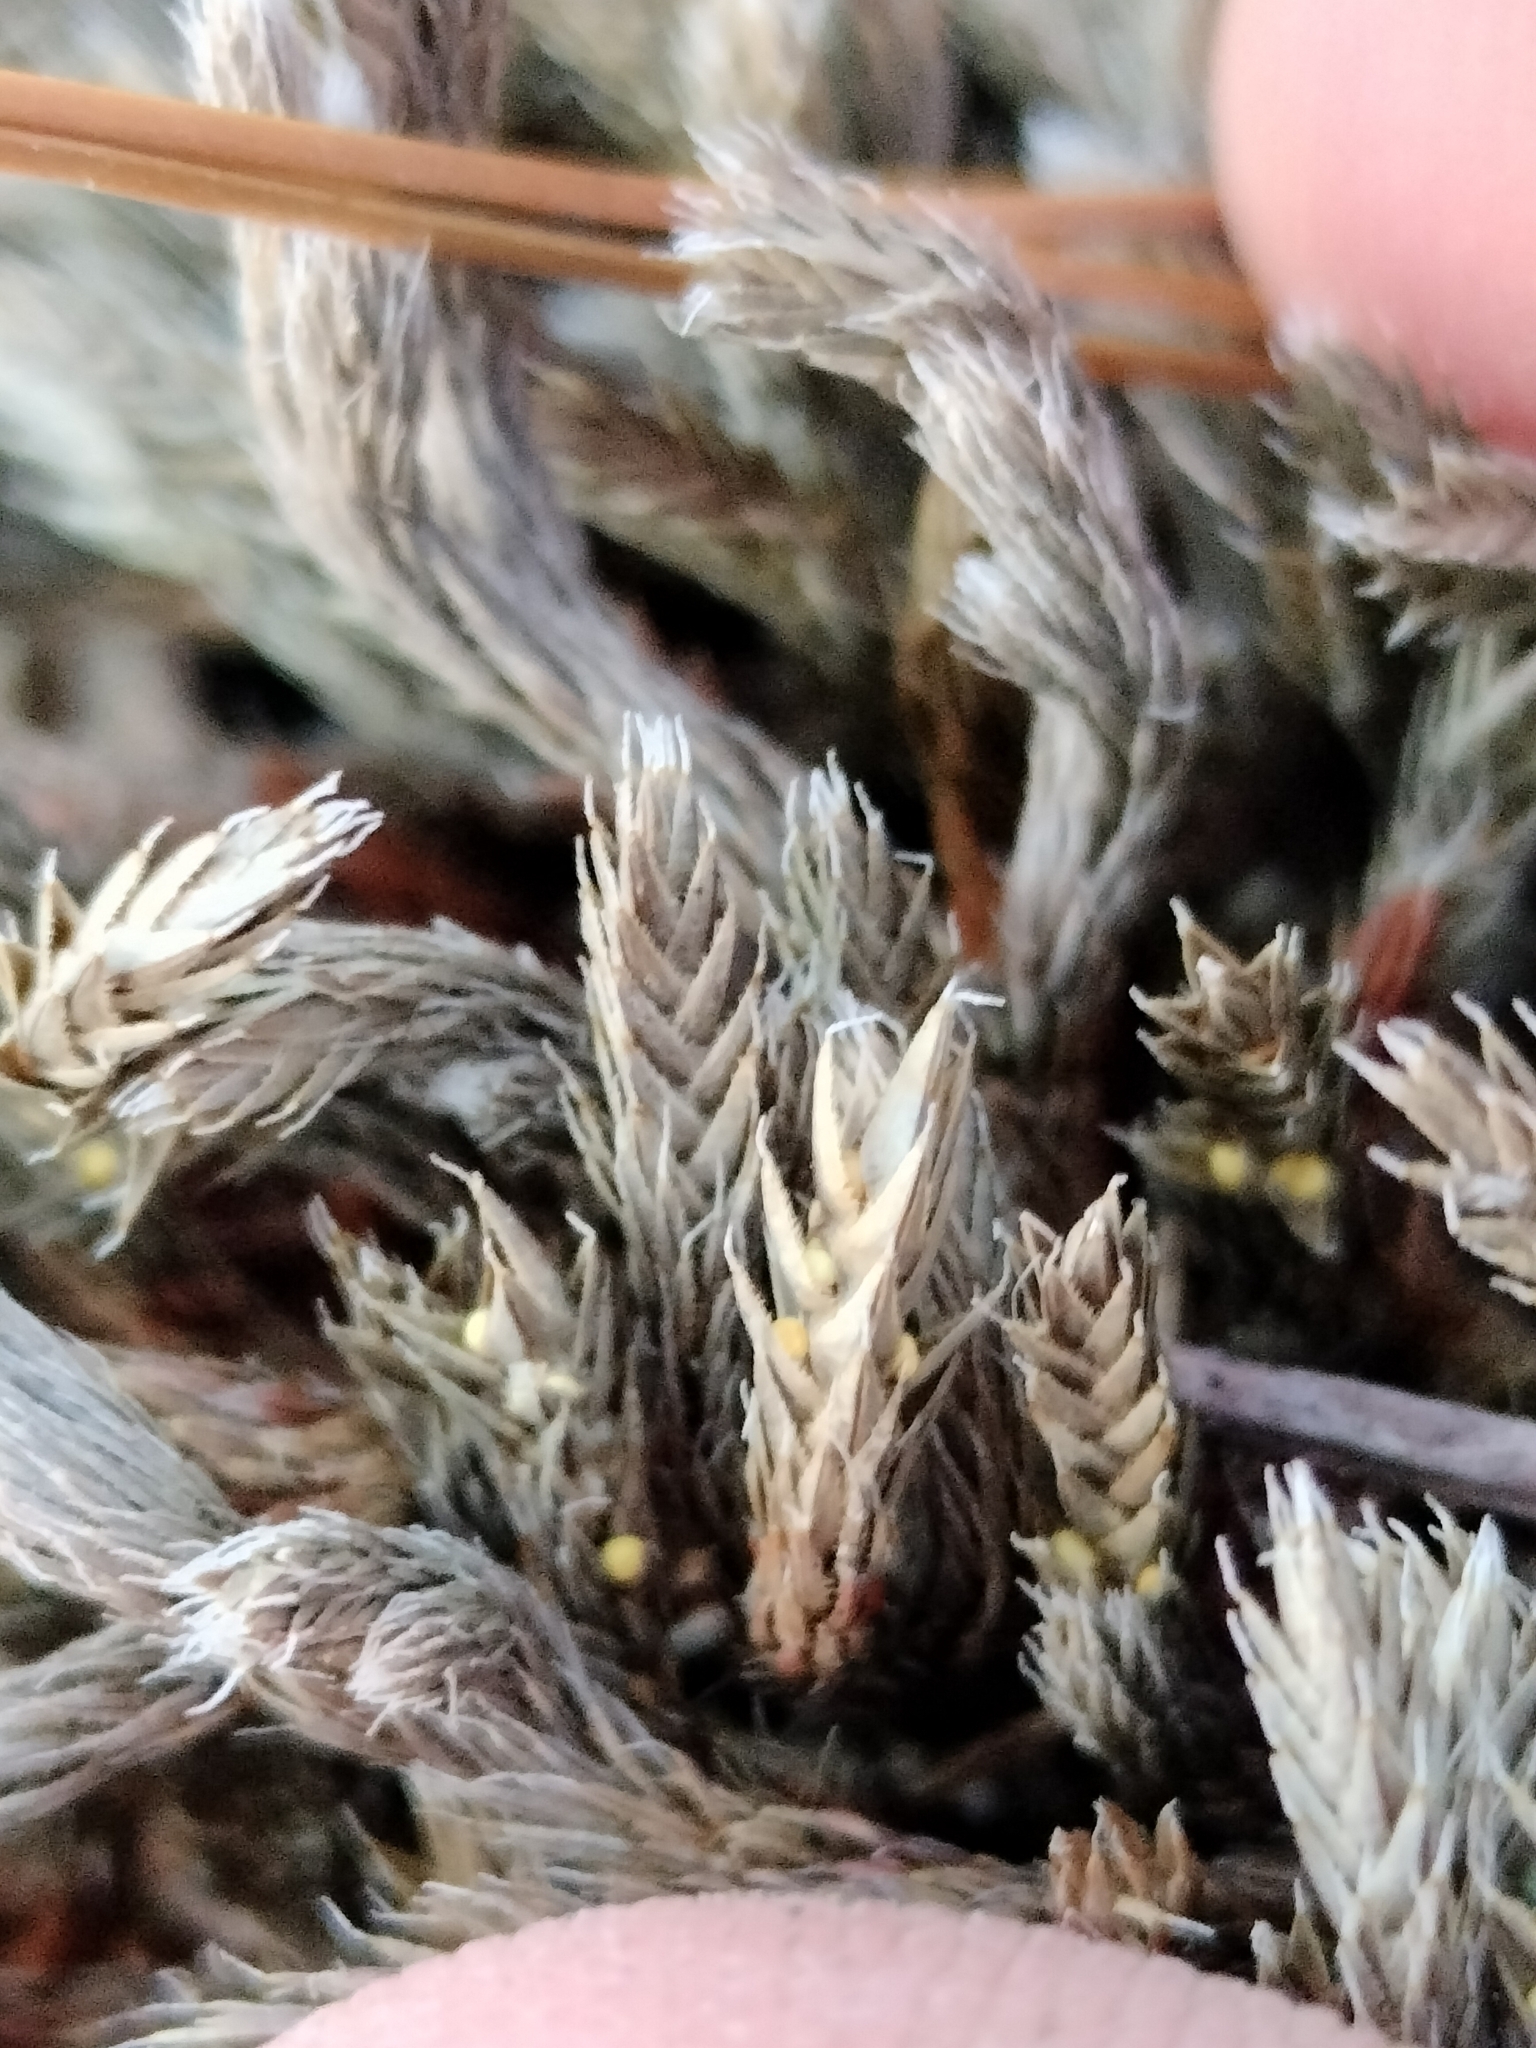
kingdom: Plantae
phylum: Tracheophyta
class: Lycopodiopsida
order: Selaginellales
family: Selaginellaceae
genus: Selaginella
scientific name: Selaginella rupestris
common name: Dwarf spikemoss
